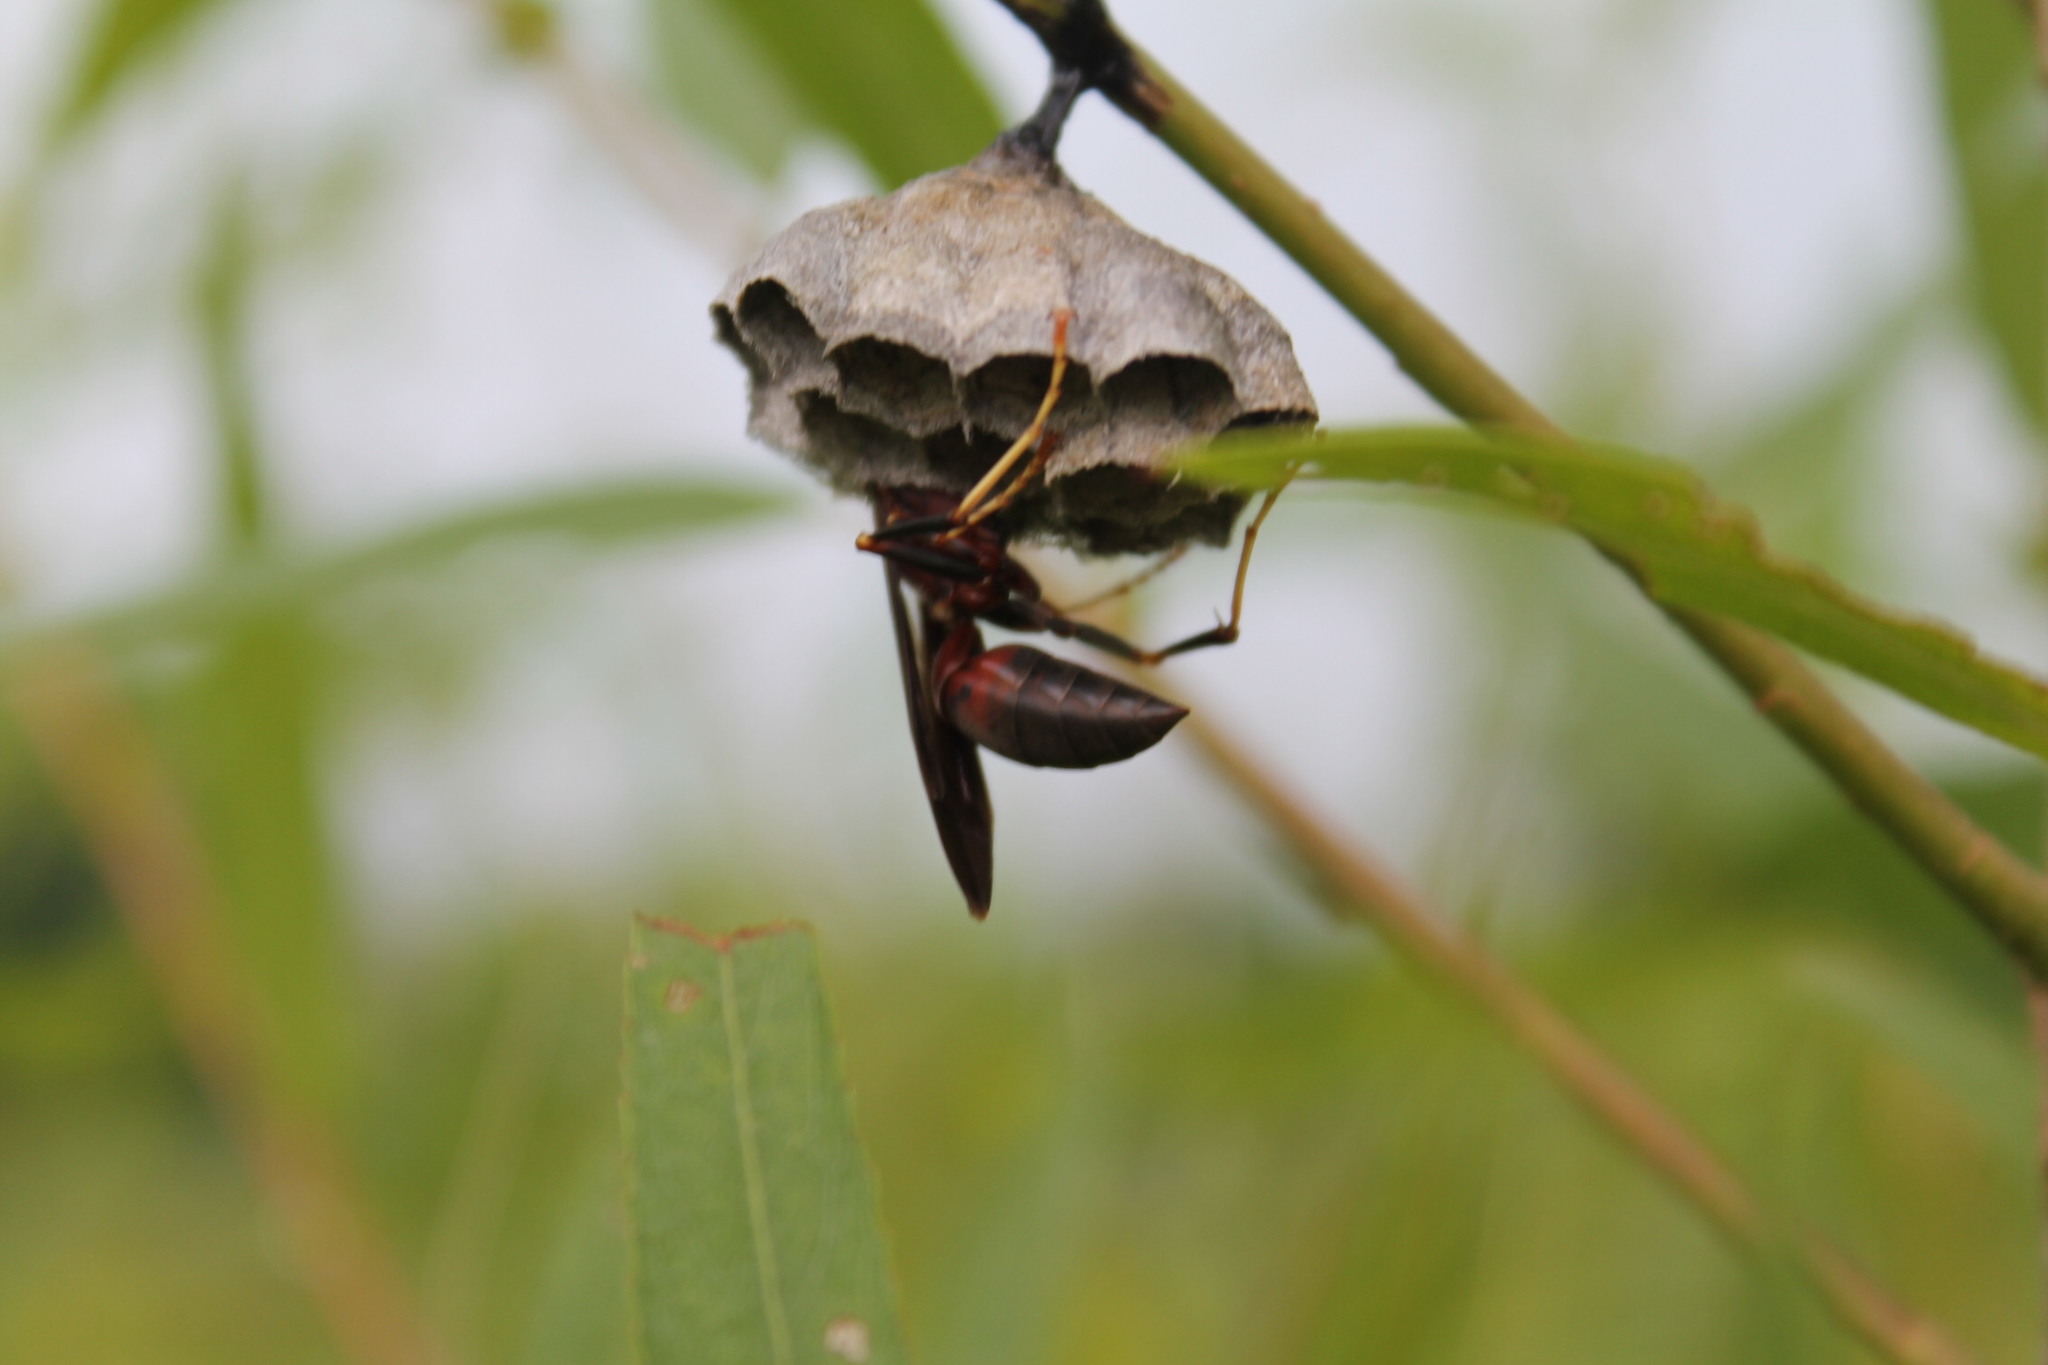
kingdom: Animalia
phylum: Arthropoda
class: Insecta
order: Hymenoptera
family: Eumenidae
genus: Polistes
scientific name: Polistes metricus
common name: Metric paper wasp
